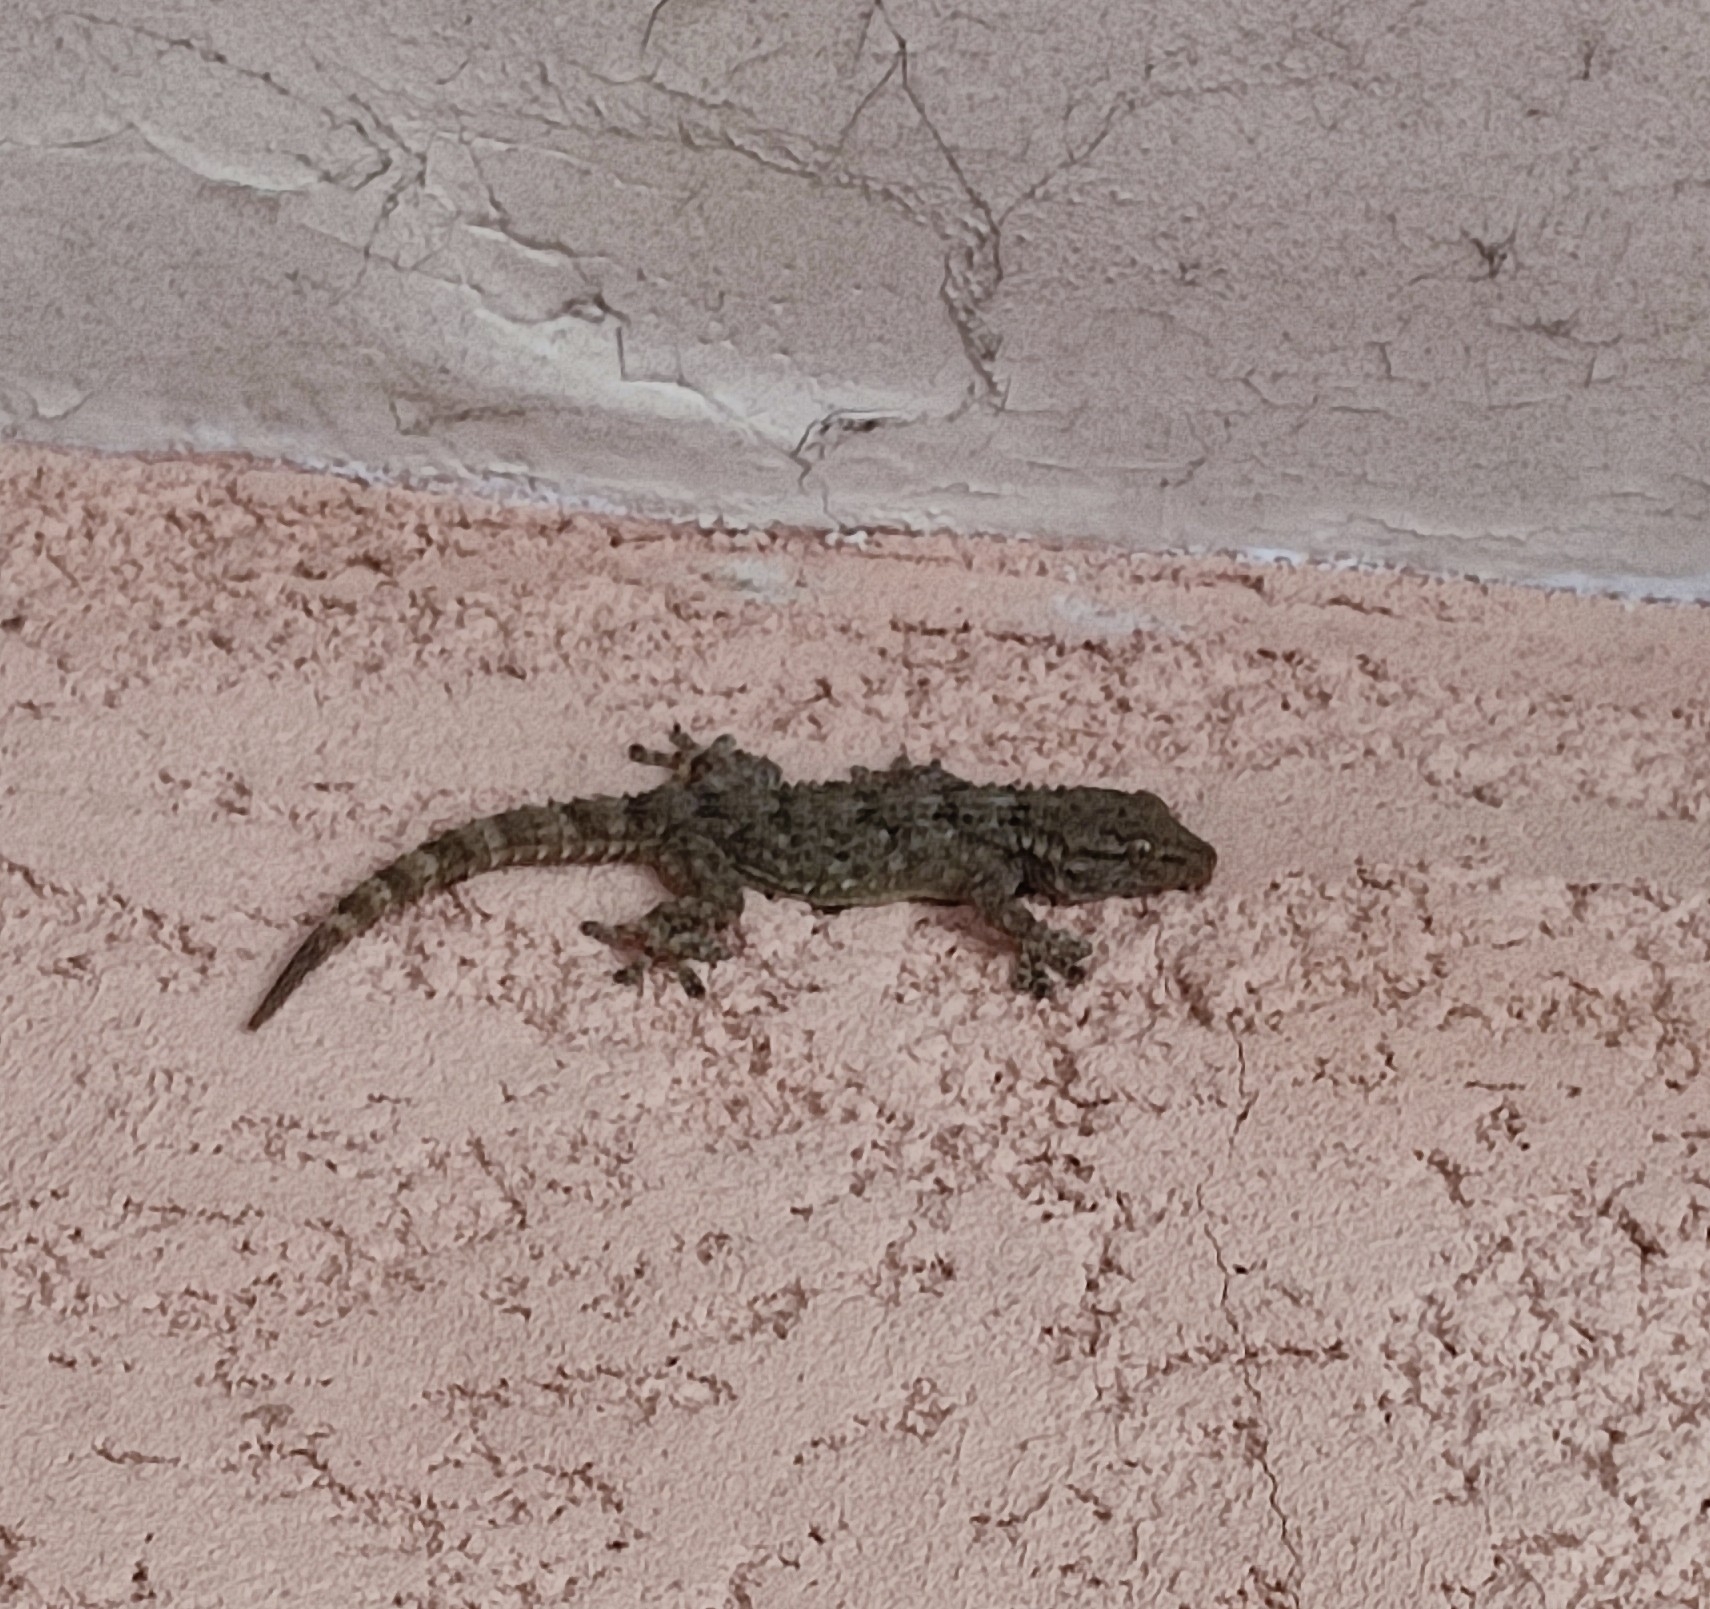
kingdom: Animalia
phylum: Chordata
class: Squamata
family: Phyllodactylidae
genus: Tarentola
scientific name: Tarentola mauritanica
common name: Moorish gecko
